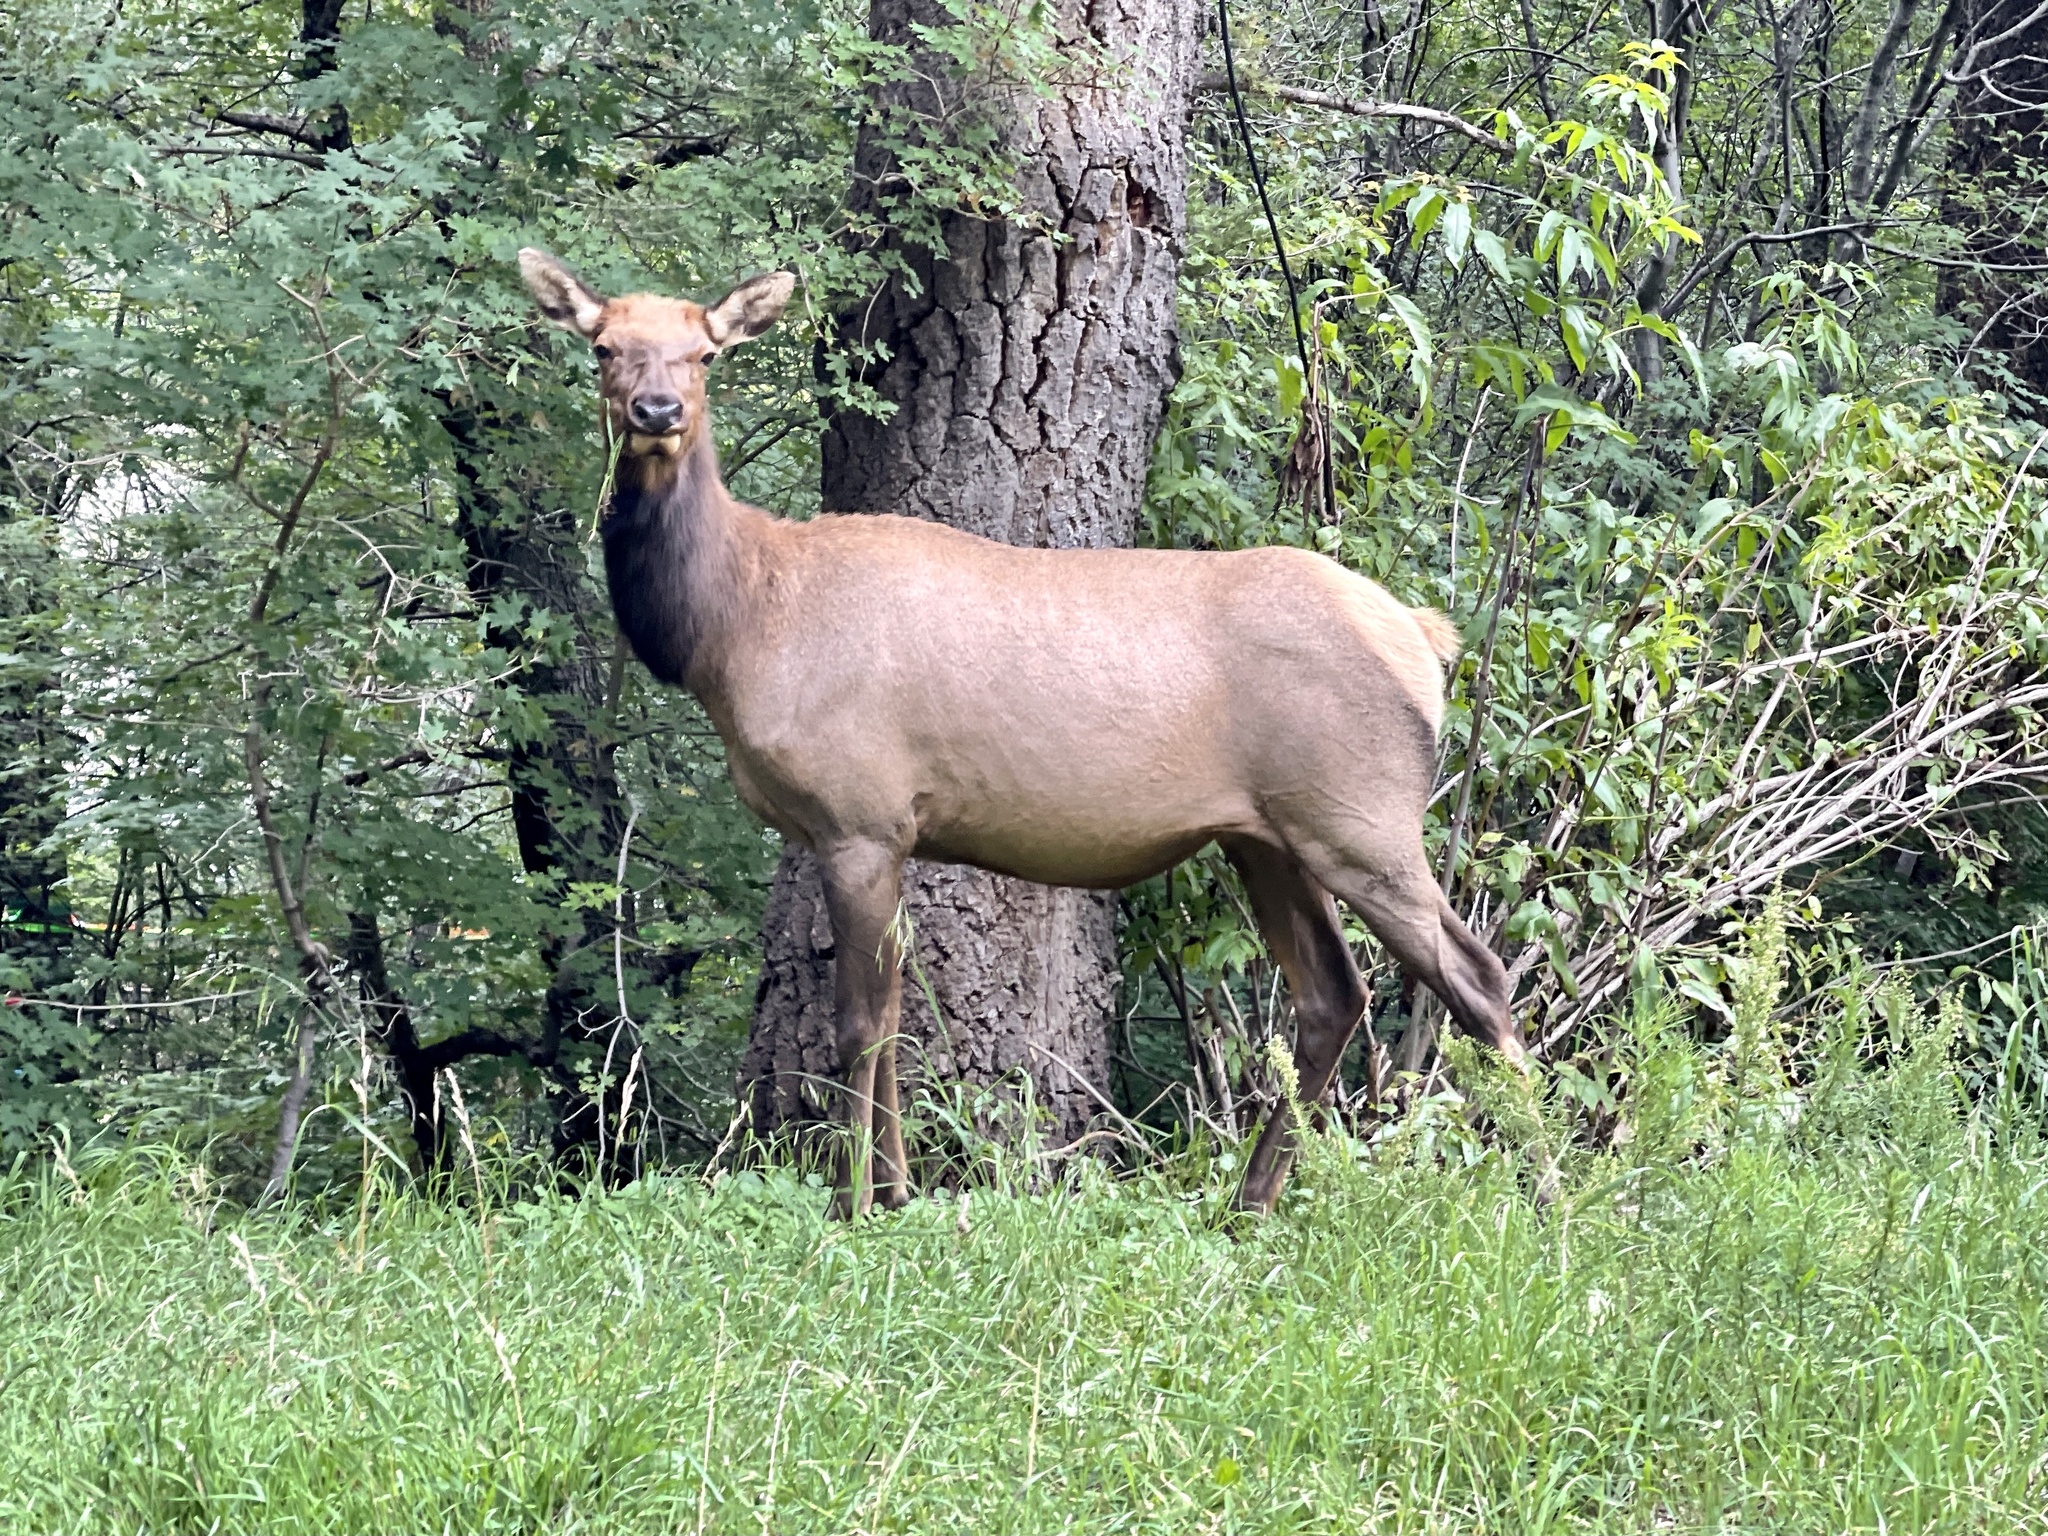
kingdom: Animalia
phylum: Chordata
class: Mammalia
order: Artiodactyla
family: Cervidae
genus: Cervus
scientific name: Cervus elaphus
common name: Red deer
